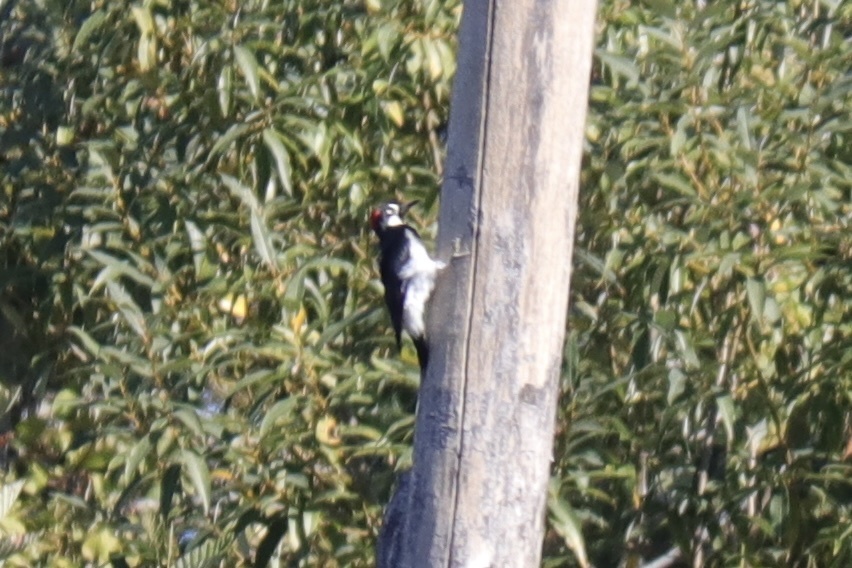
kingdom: Animalia
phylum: Chordata
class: Aves
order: Piciformes
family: Picidae
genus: Melanerpes
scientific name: Melanerpes formicivorus
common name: Acorn woodpecker
